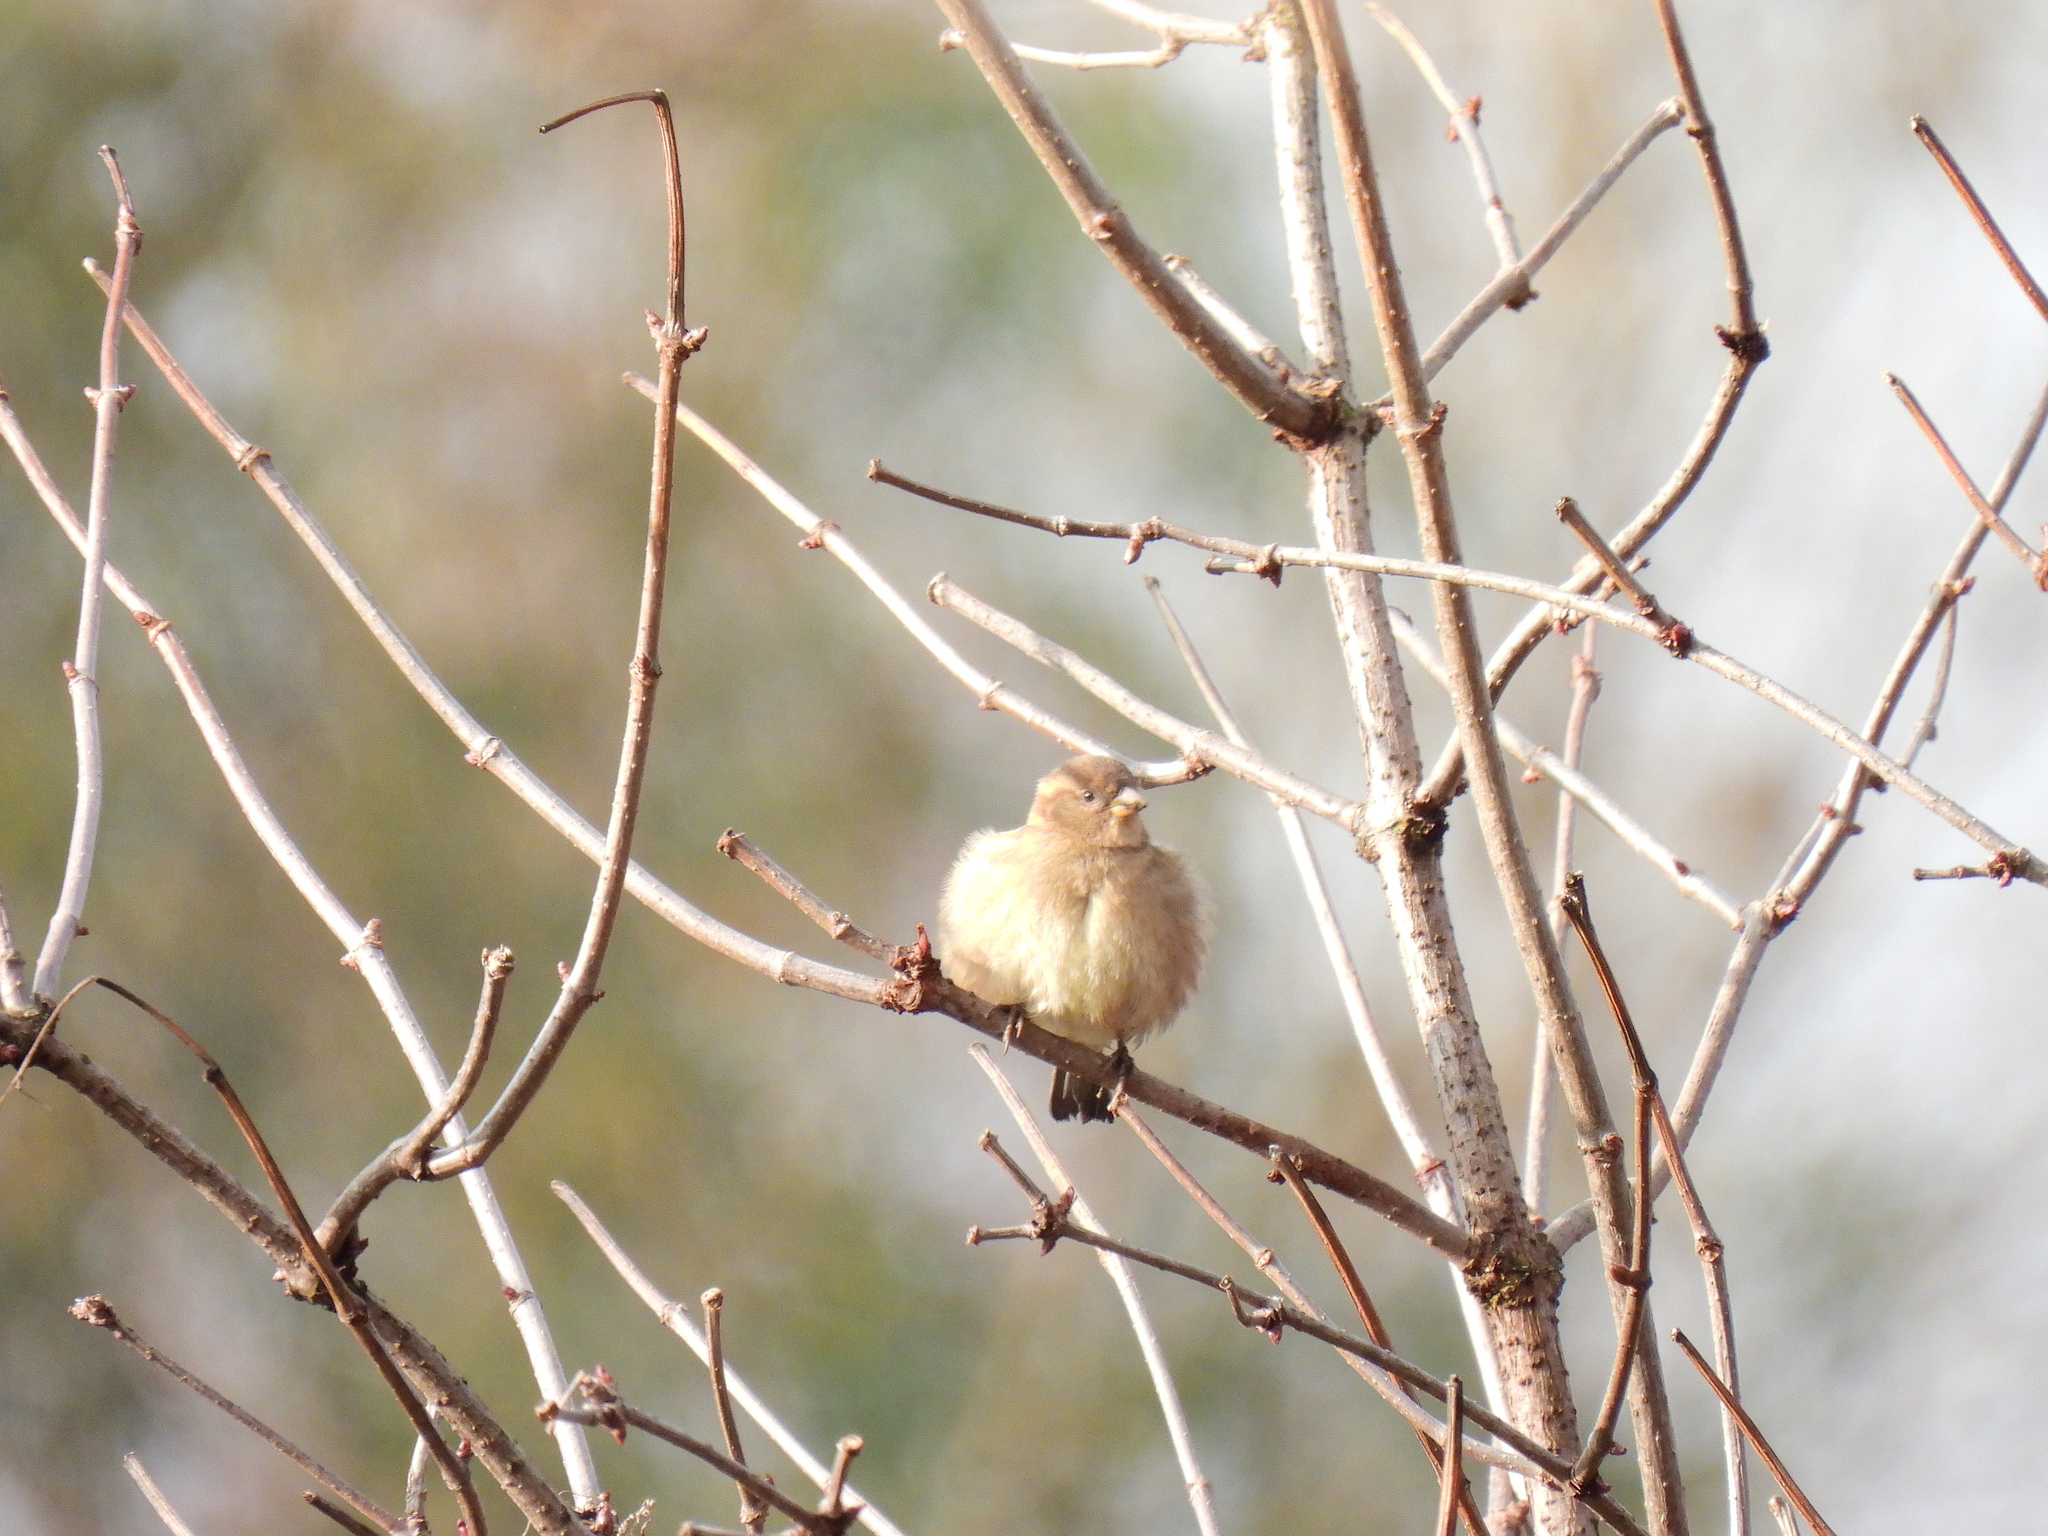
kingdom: Animalia
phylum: Chordata
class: Aves
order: Passeriformes
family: Passeridae
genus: Passer
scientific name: Passer domesticus
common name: House sparrow
